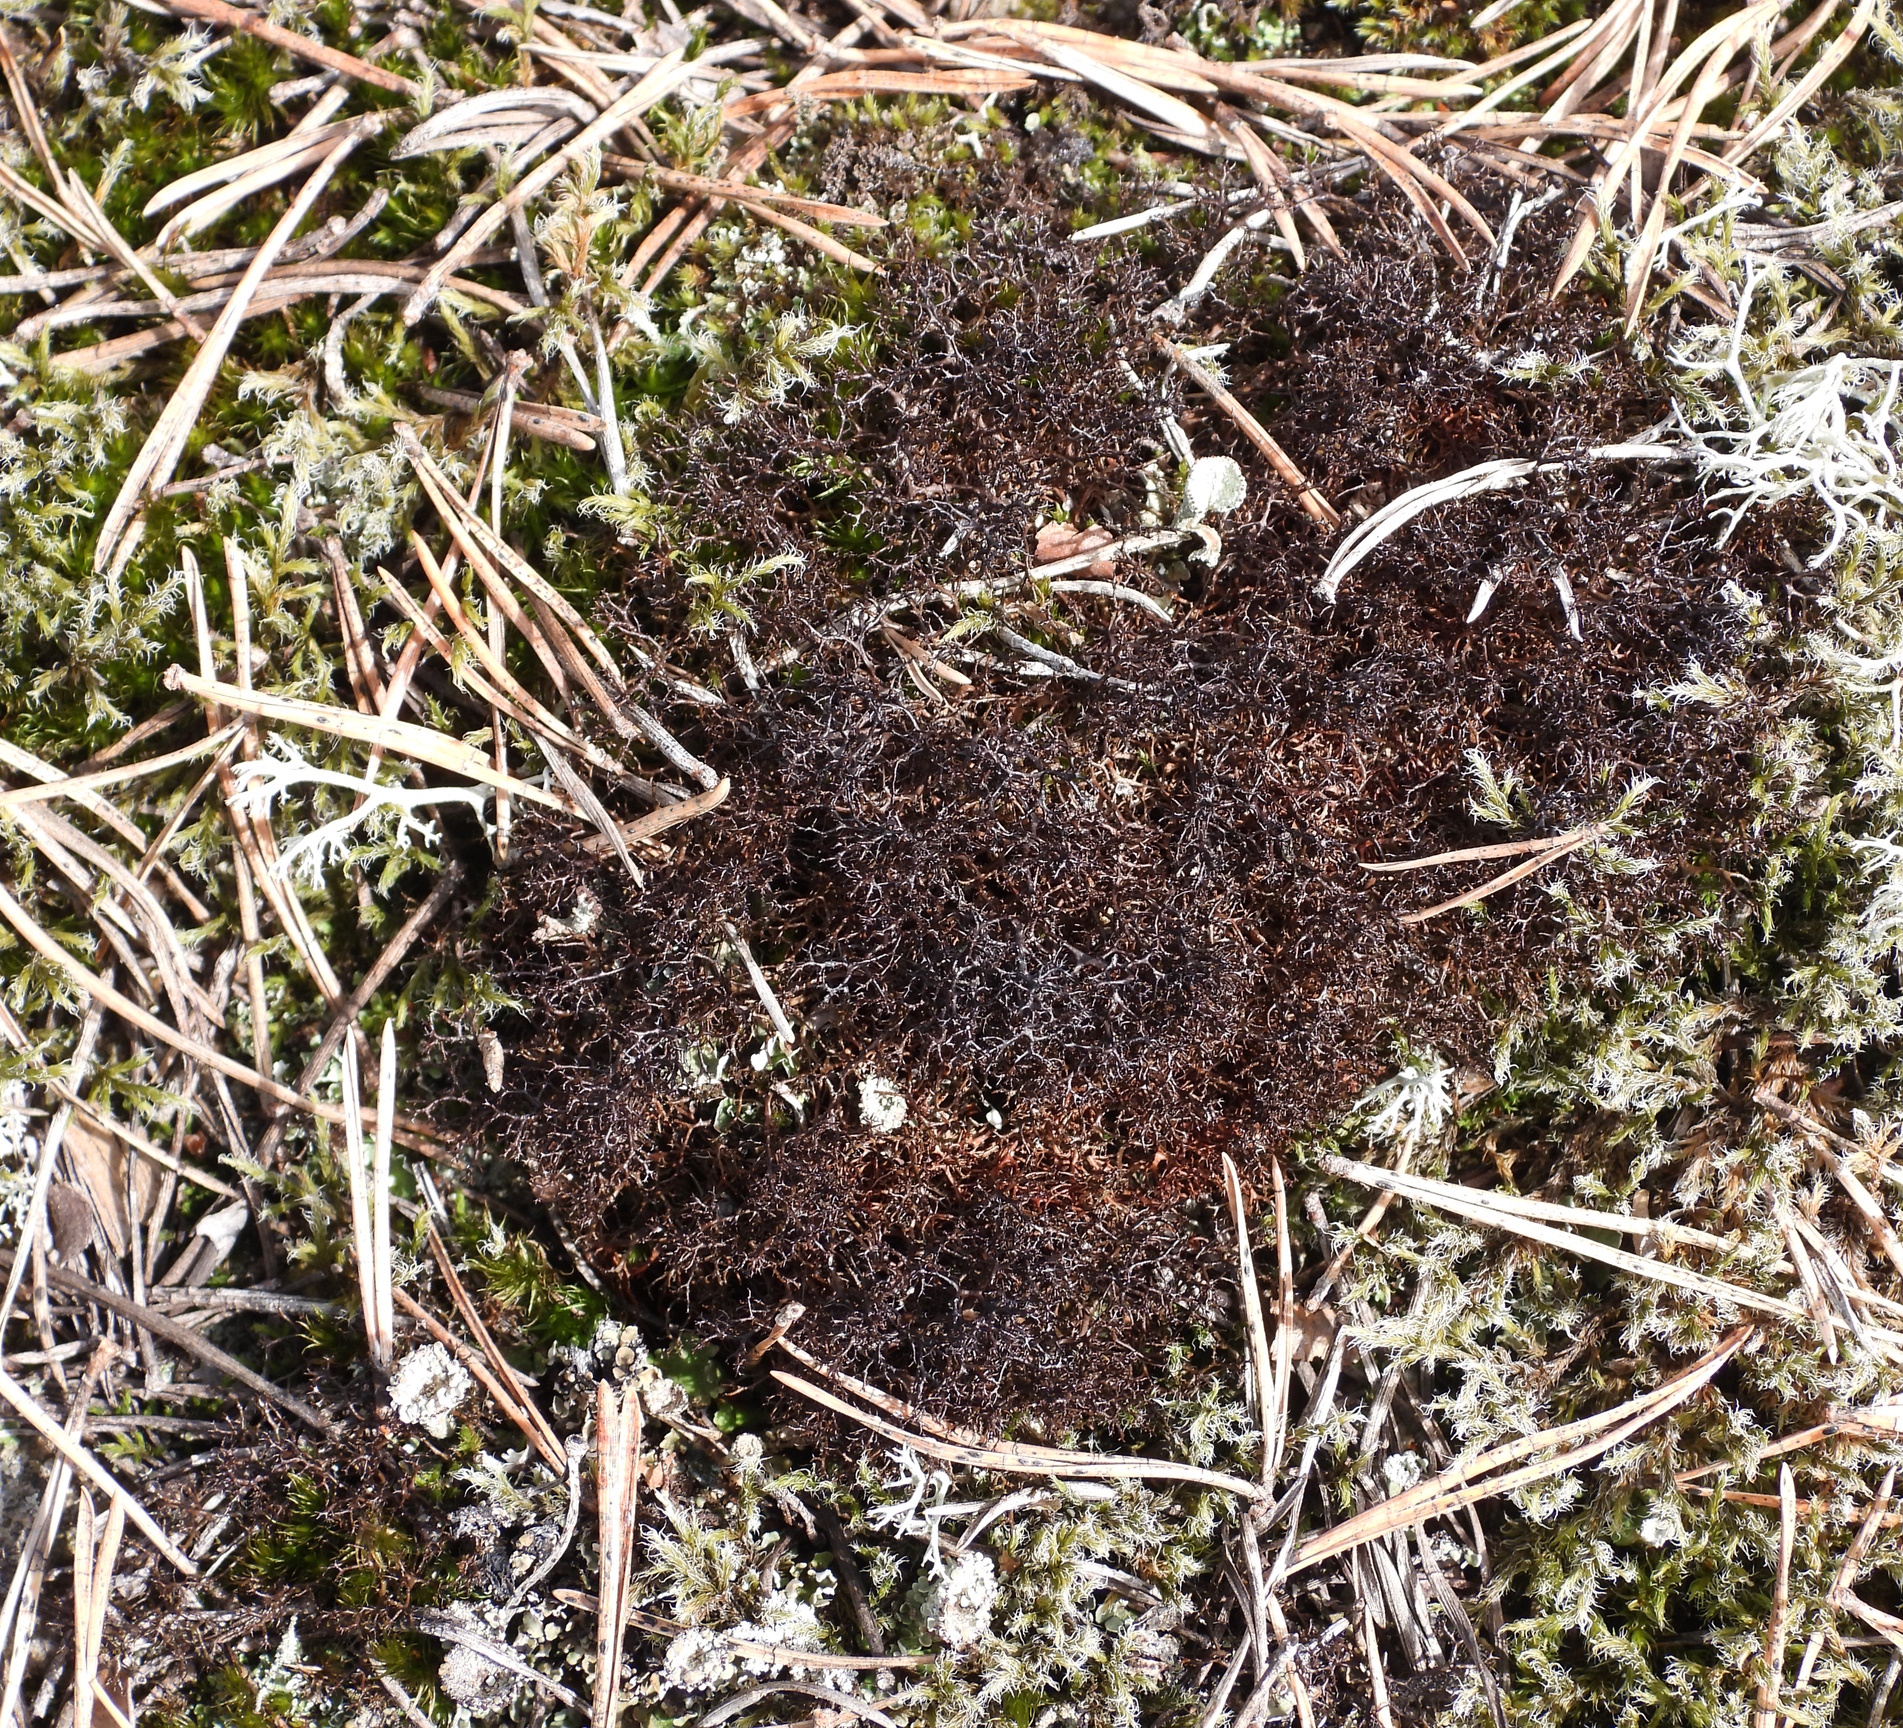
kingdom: Fungi
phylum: Ascomycota
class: Lecanoromycetes
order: Lecanorales
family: Parmeliaceae
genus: Cetraria
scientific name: Cetraria muricata
